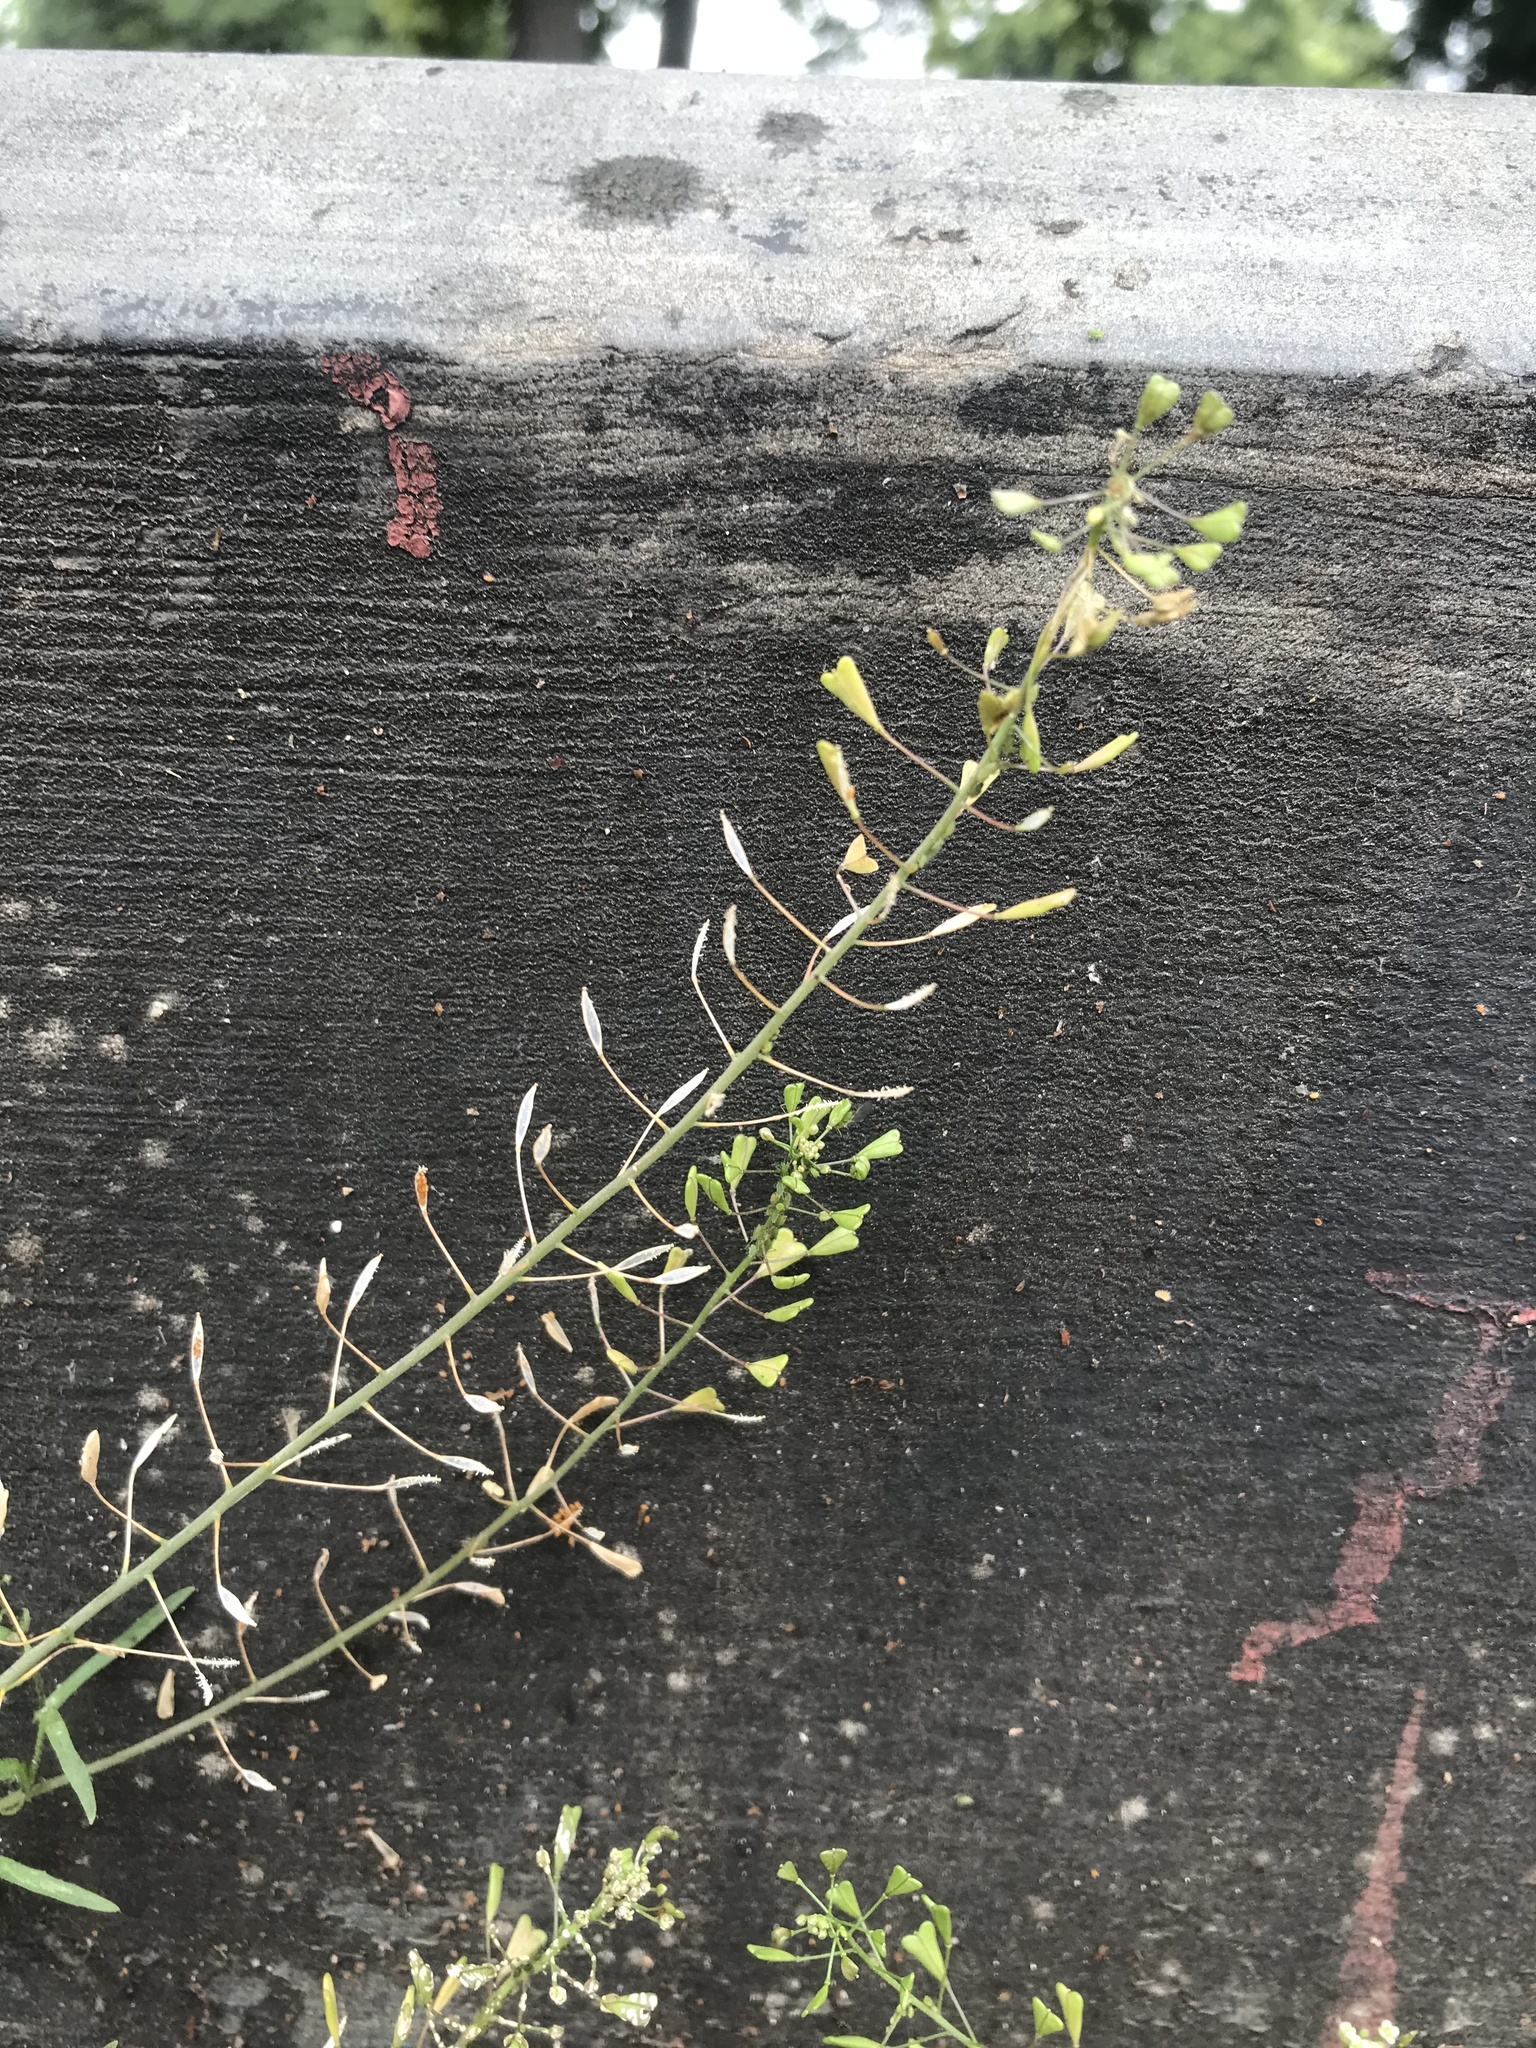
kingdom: Plantae
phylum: Tracheophyta
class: Magnoliopsida
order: Brassicales
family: Brassicaceae
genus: Capsella
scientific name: Capsella bursa-pastoris
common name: Shepherd's purse
